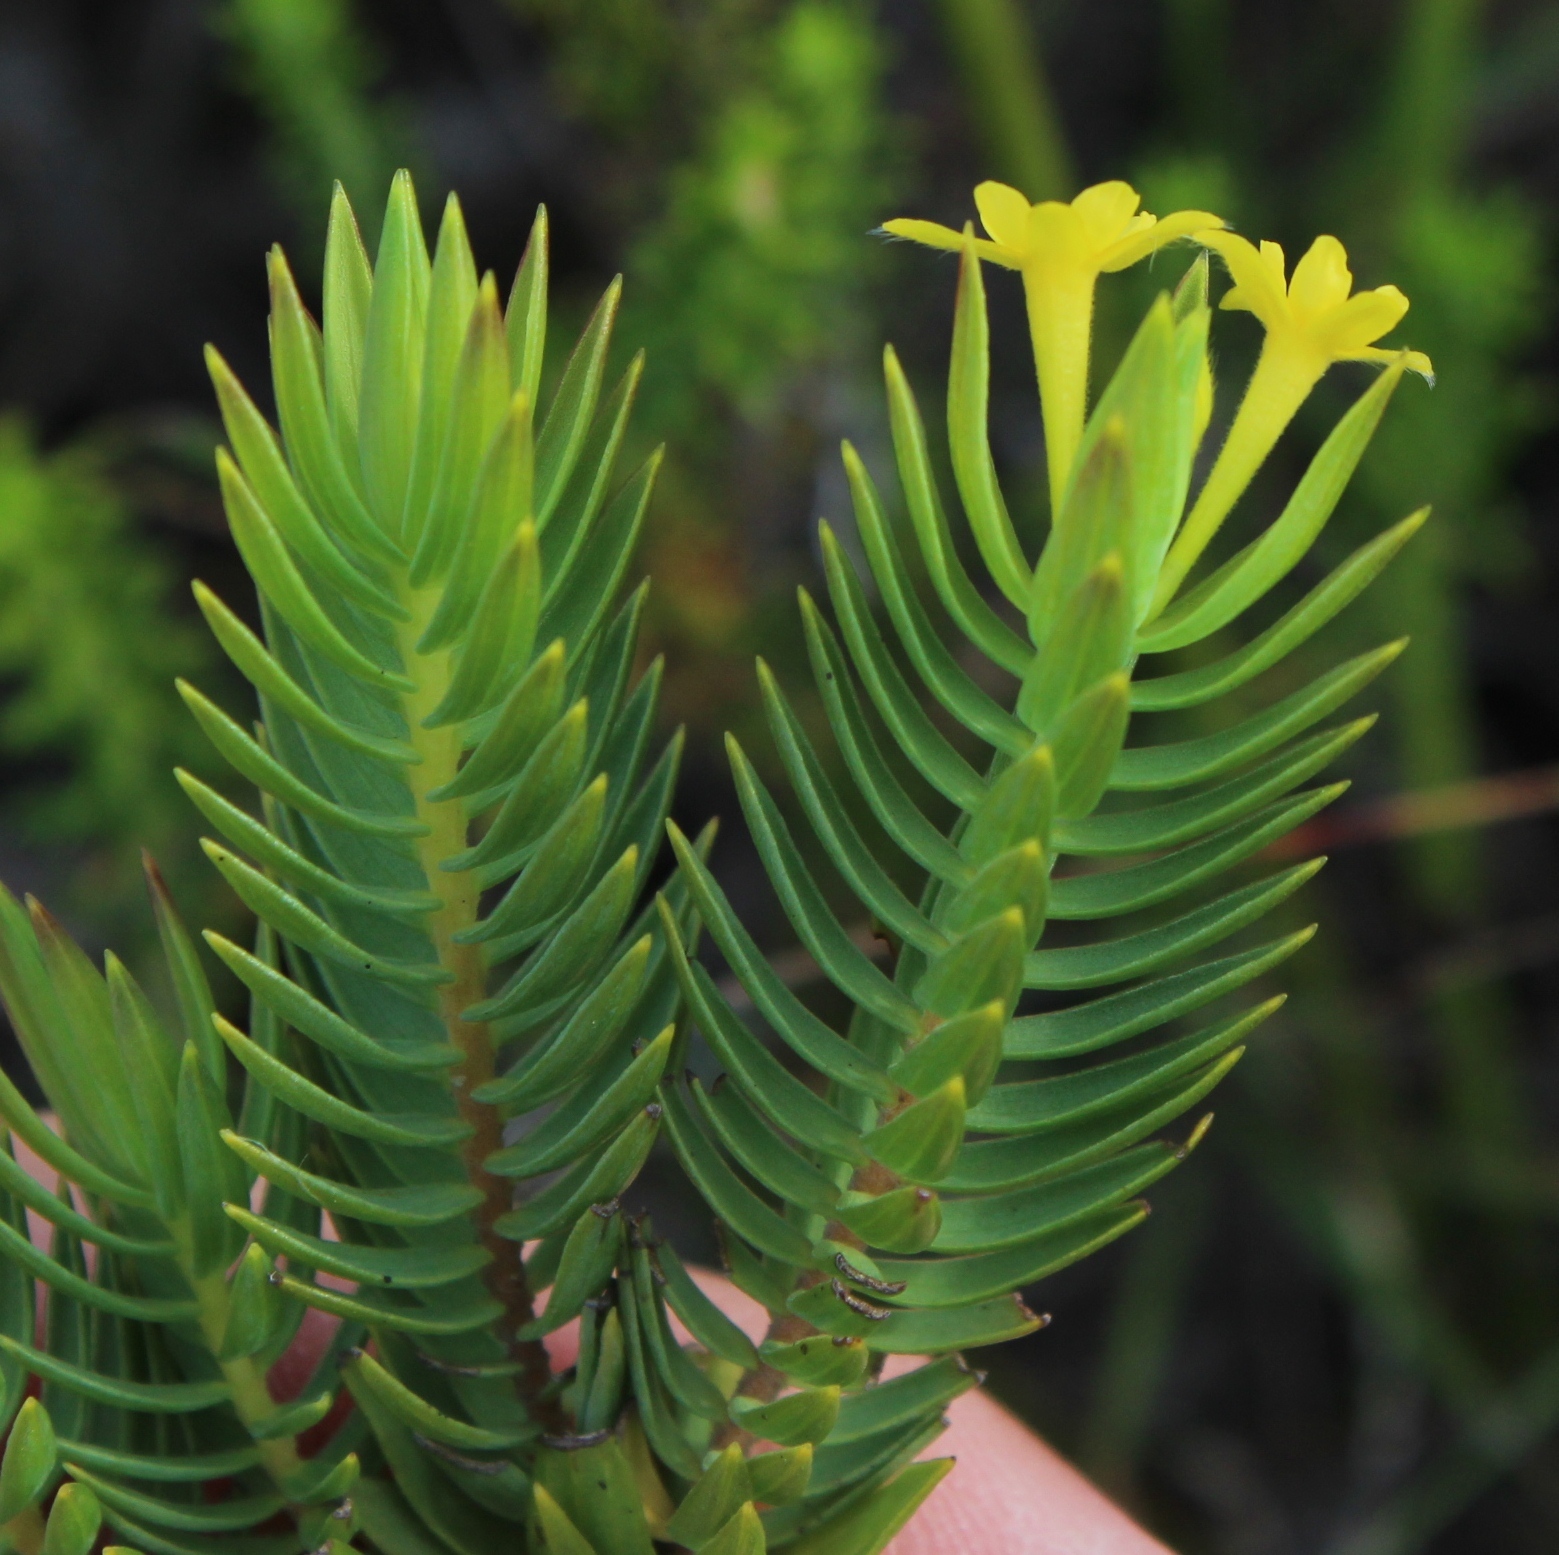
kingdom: Plantae
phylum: Tracheophyta
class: Magnoliopsida
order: Malvales
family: Thymelaeaceae
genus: Gnidia
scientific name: Gnidia styphelioides
